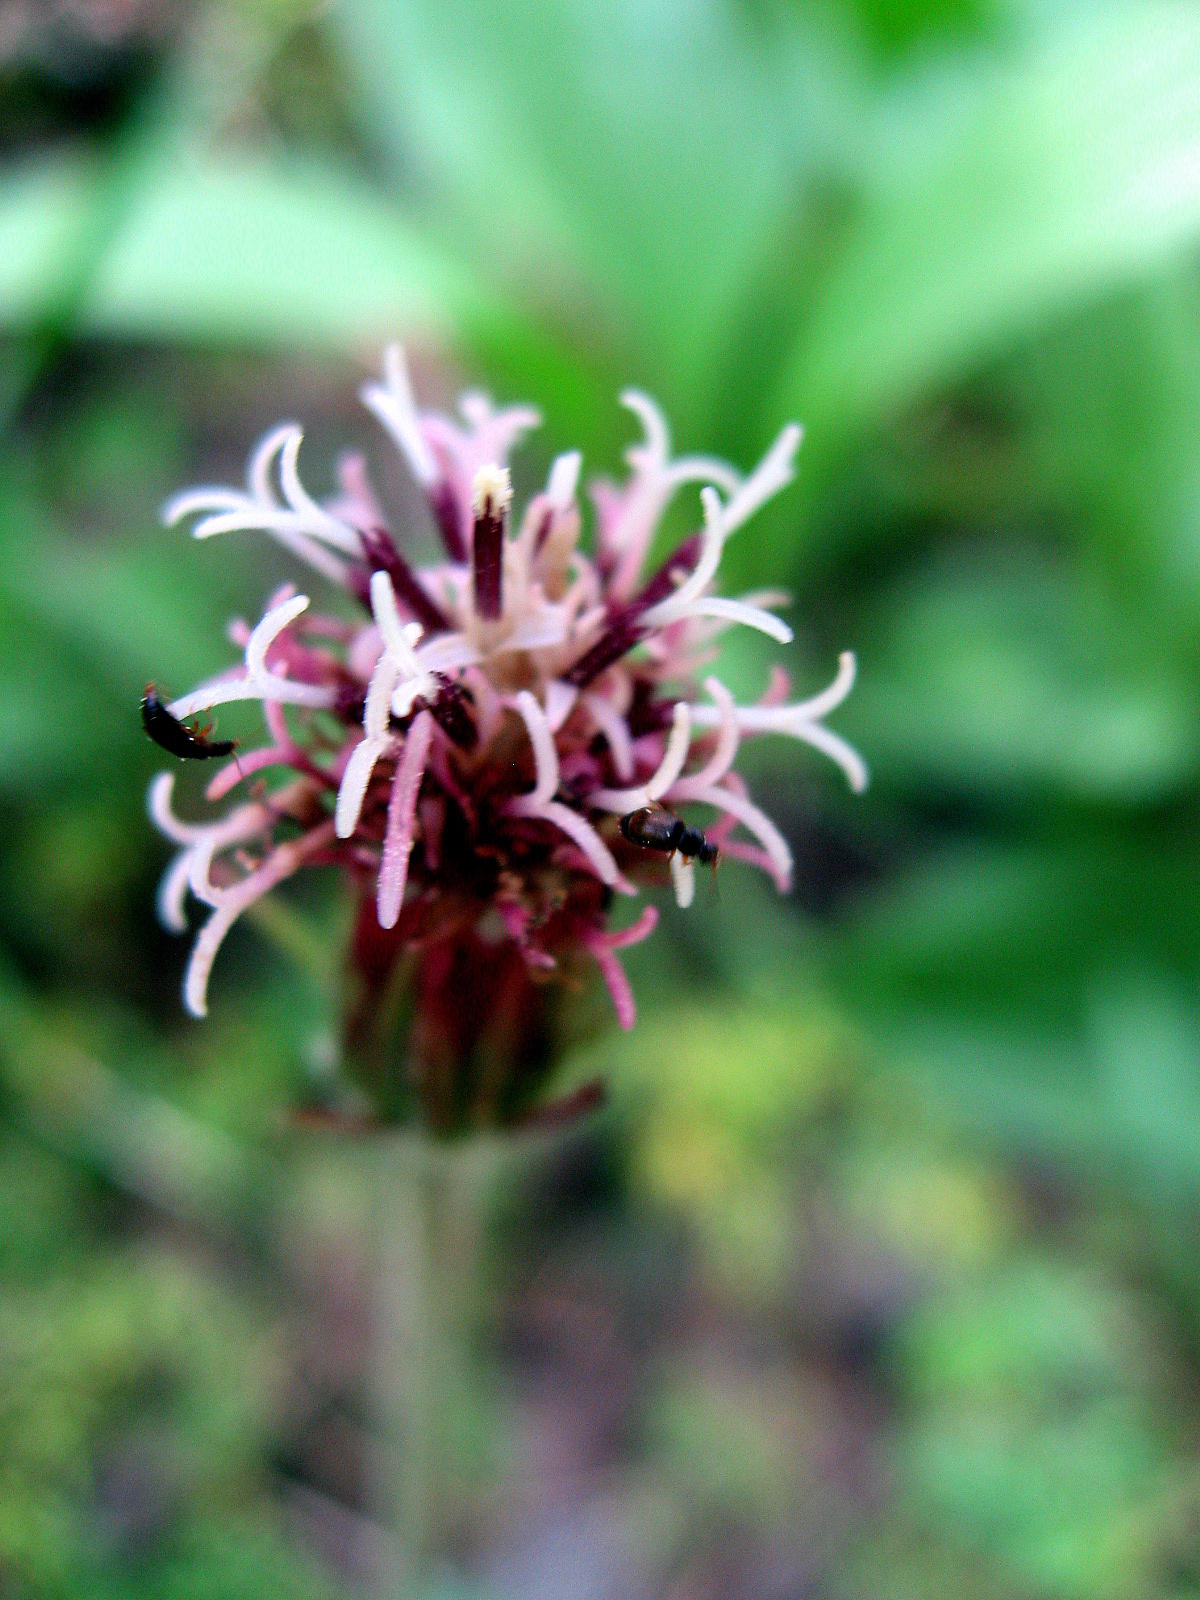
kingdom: Plantae
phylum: Tracheophyta
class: Magnoliopsida
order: Asterales
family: Asteraceae
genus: Homogyne
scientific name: Homogyne alpina
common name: Purple colt's-foot
